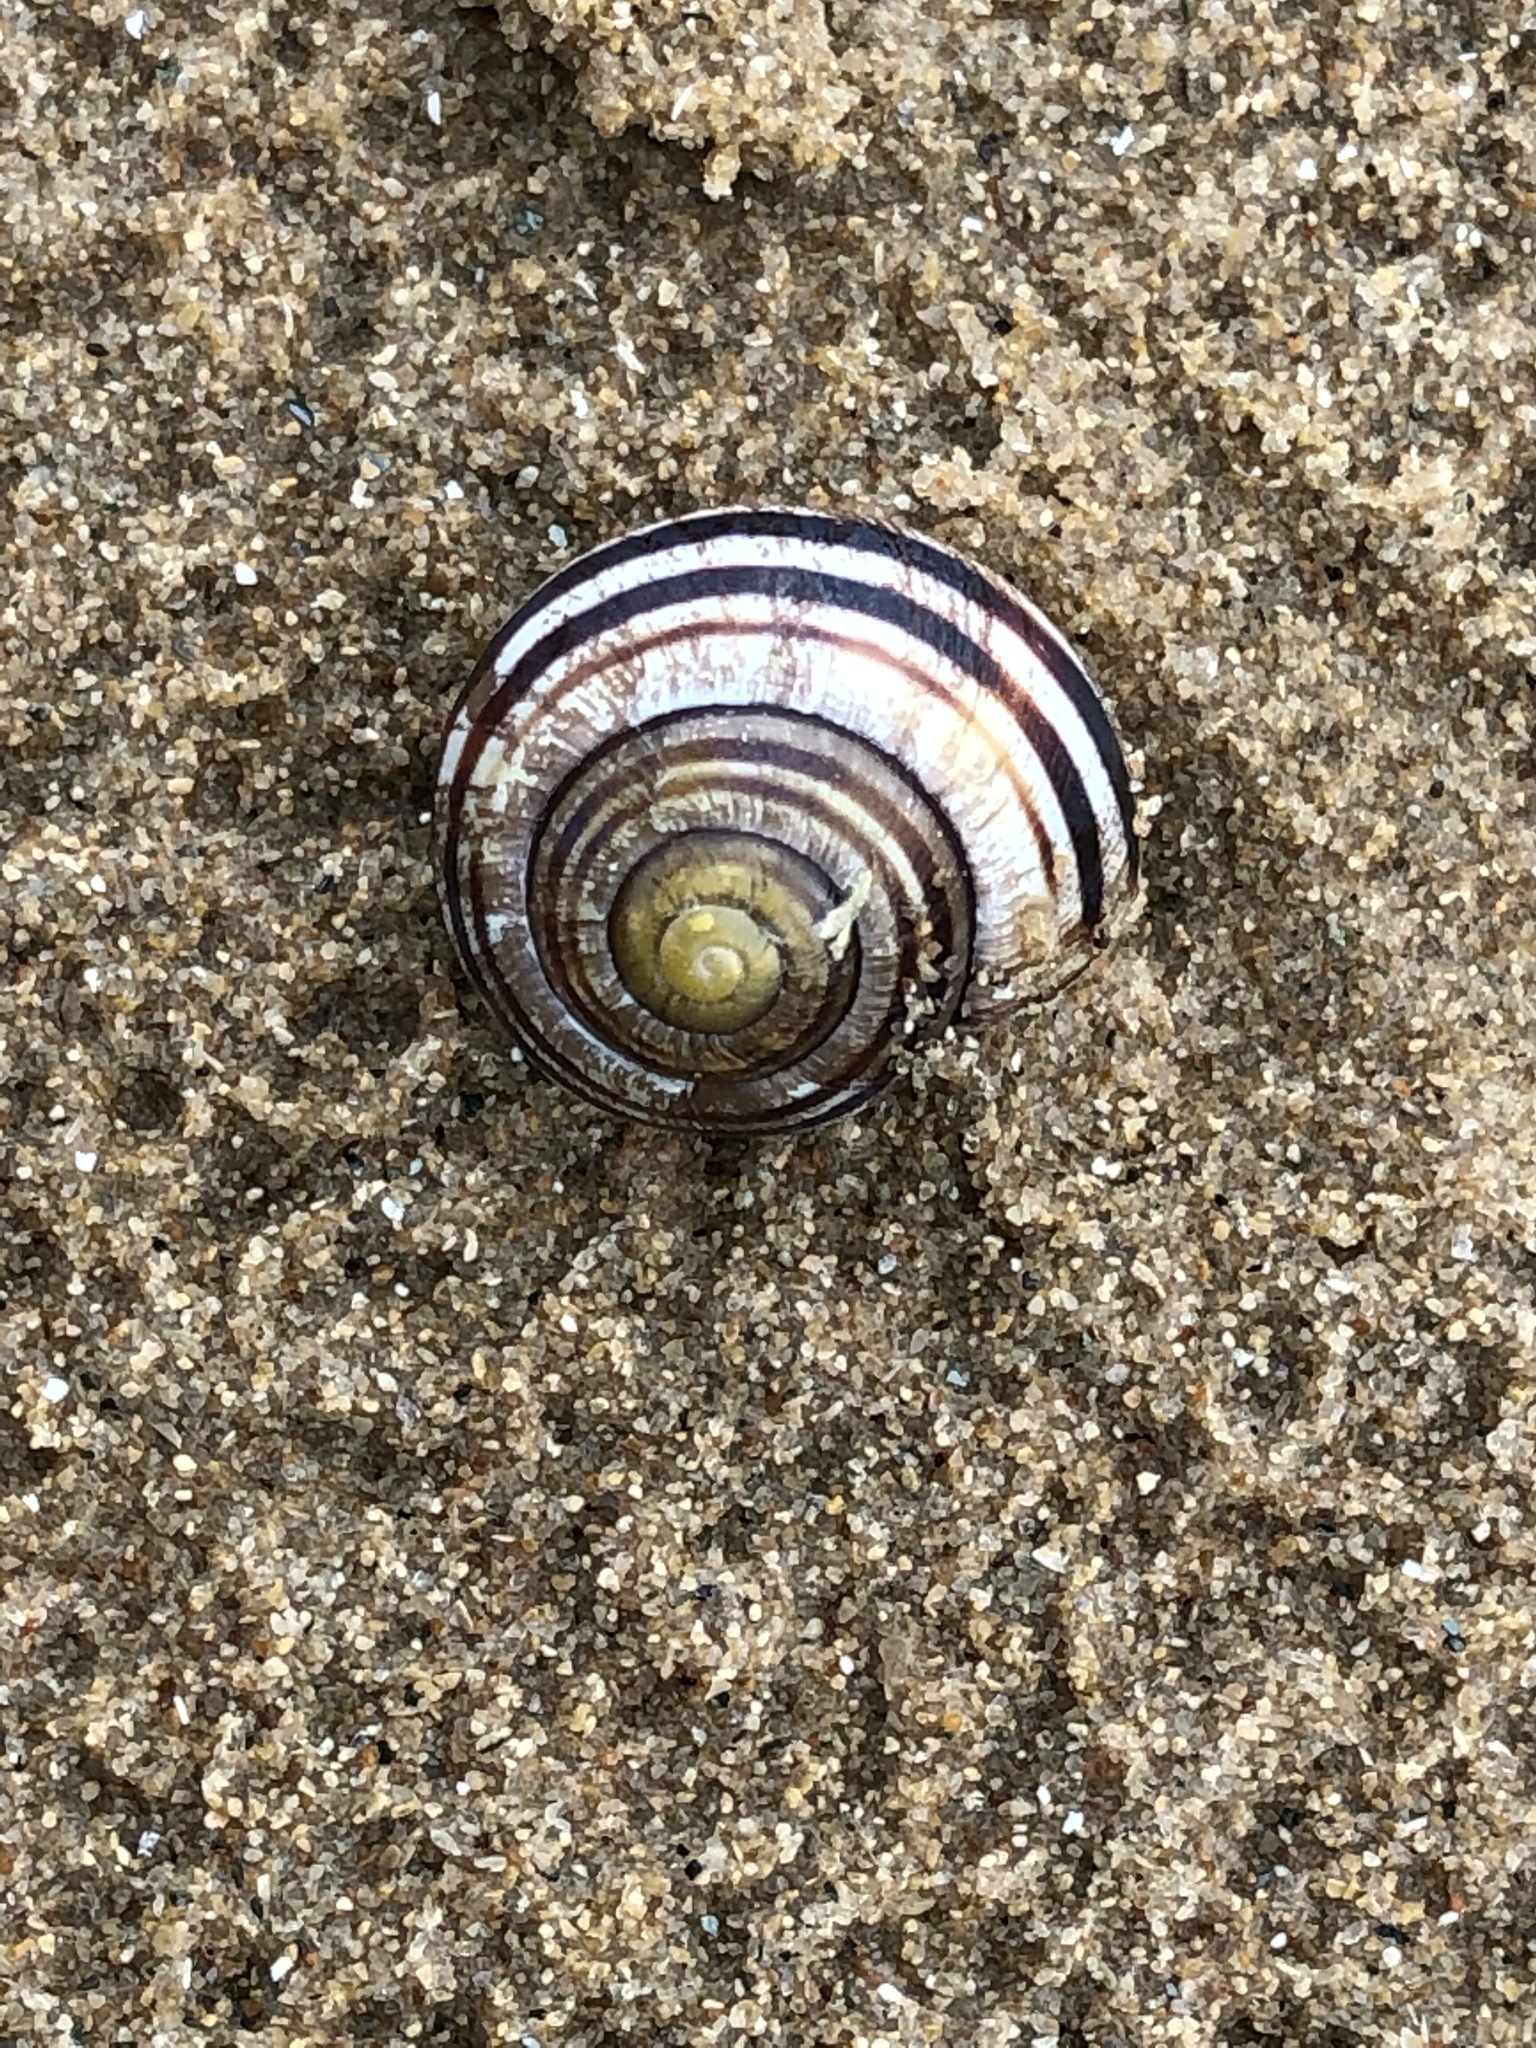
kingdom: Animalia
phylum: Mollusca
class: Gastropoda
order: Stylommatophora
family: Helicidae
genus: Cepaea
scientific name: Cepaea nemoralis
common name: Grovesnail
